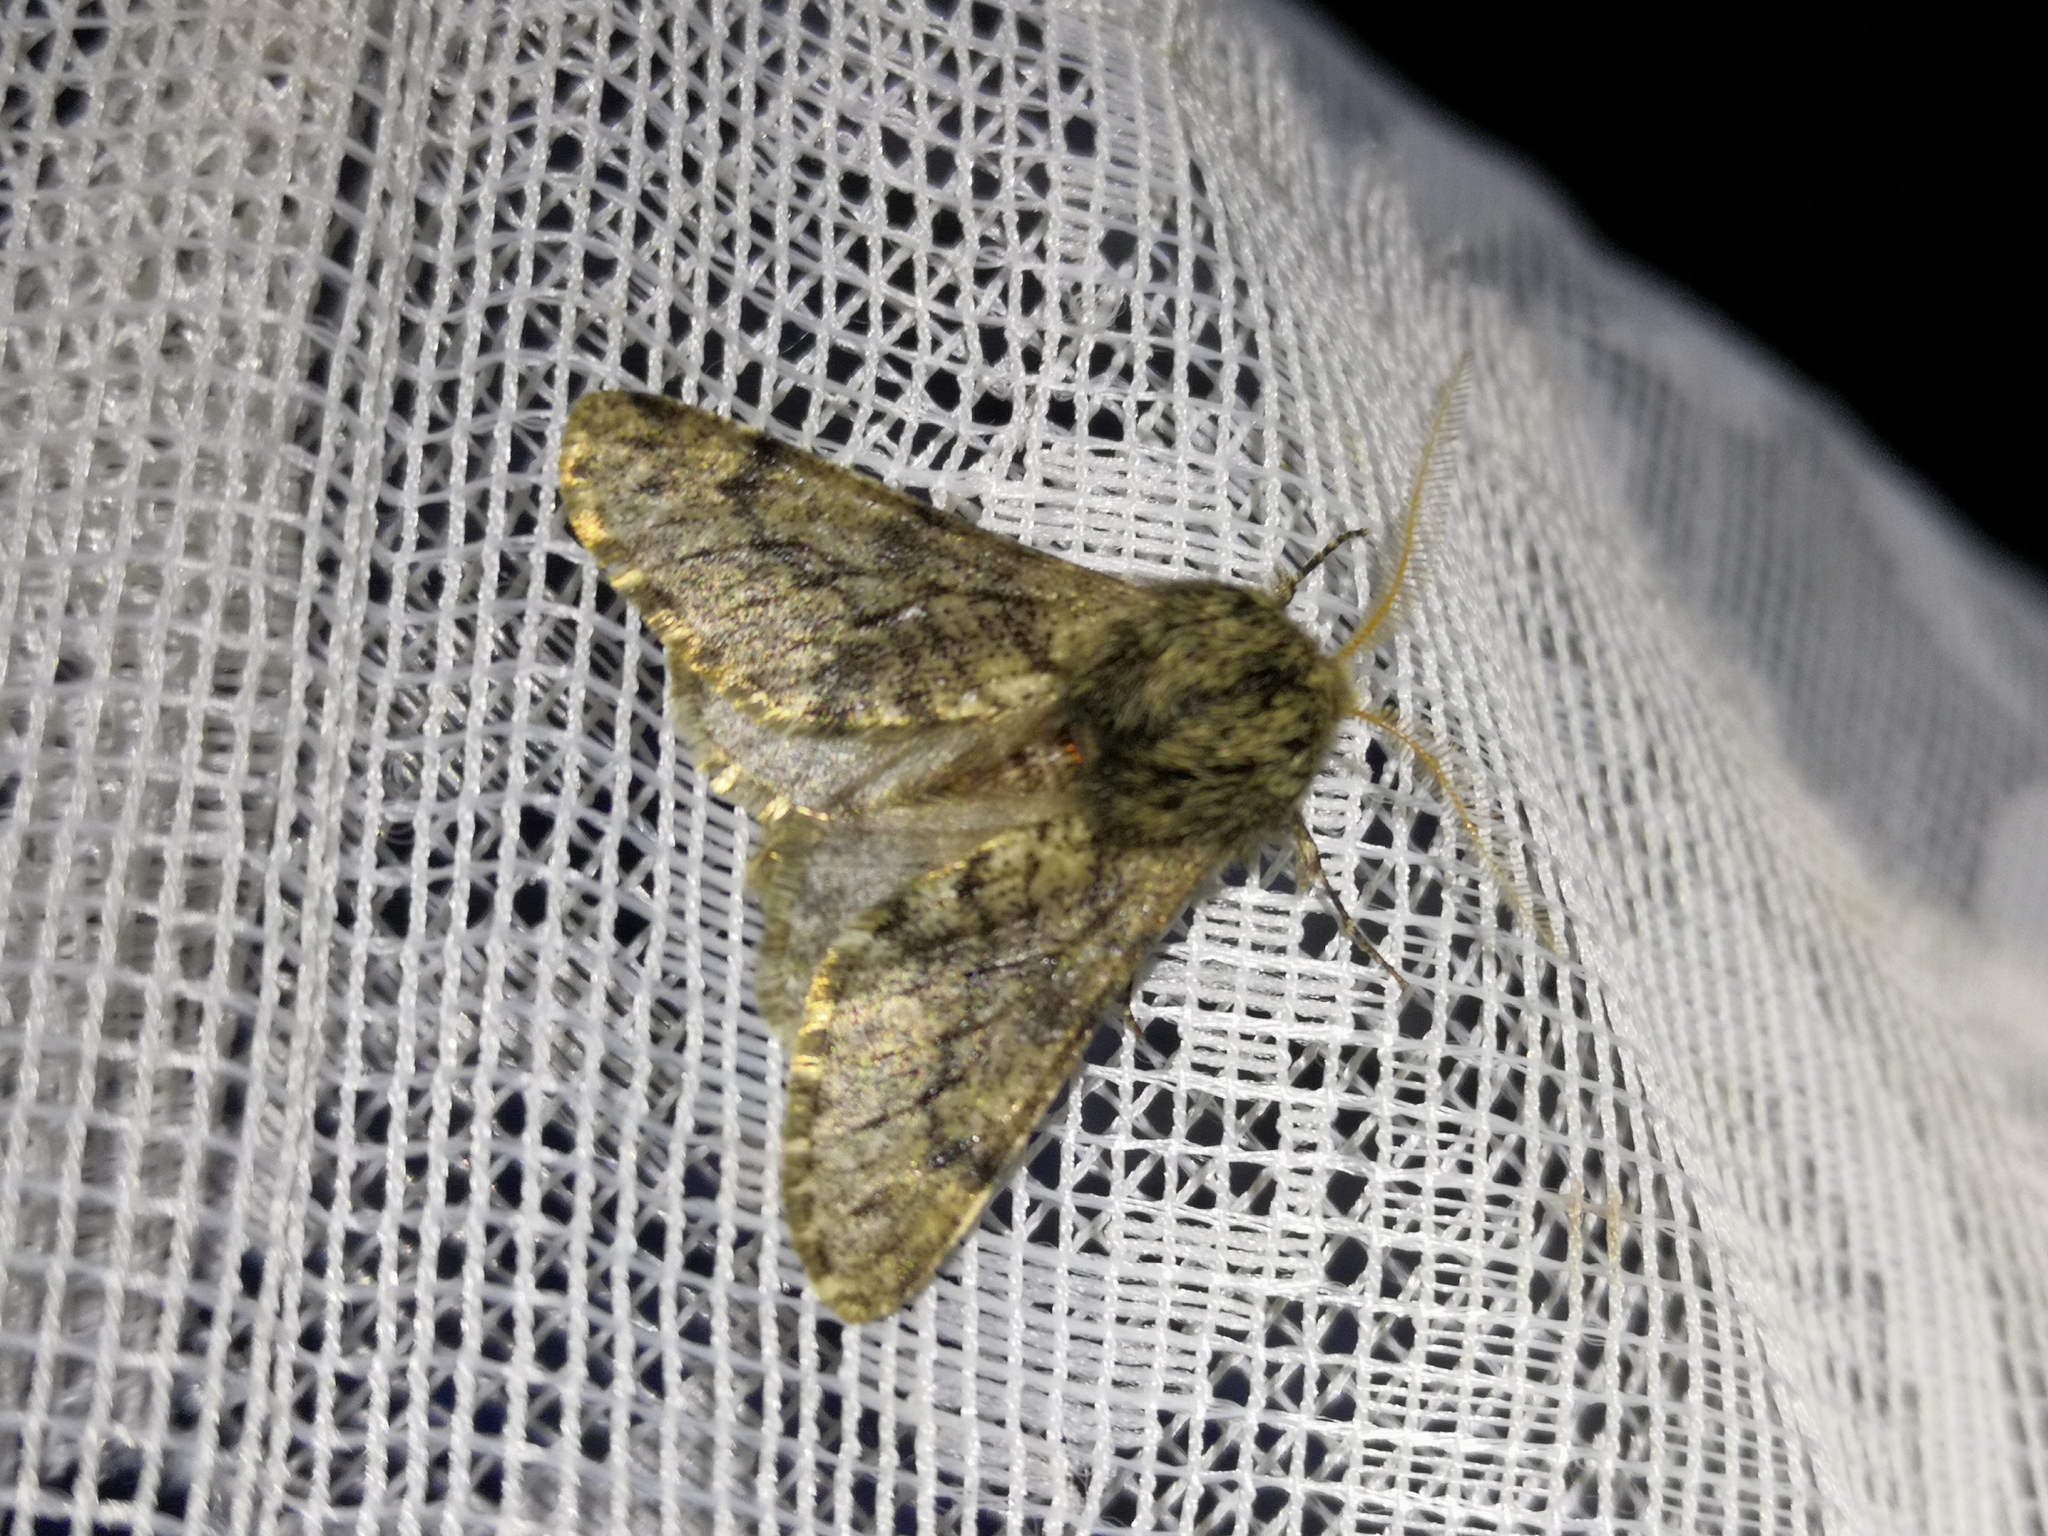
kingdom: Animalia
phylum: Arthropoda
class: Insecta
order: Lepidoptera
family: Geometridae
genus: Apocheima
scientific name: Apocheima hispidaria
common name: Small brindled beauty
